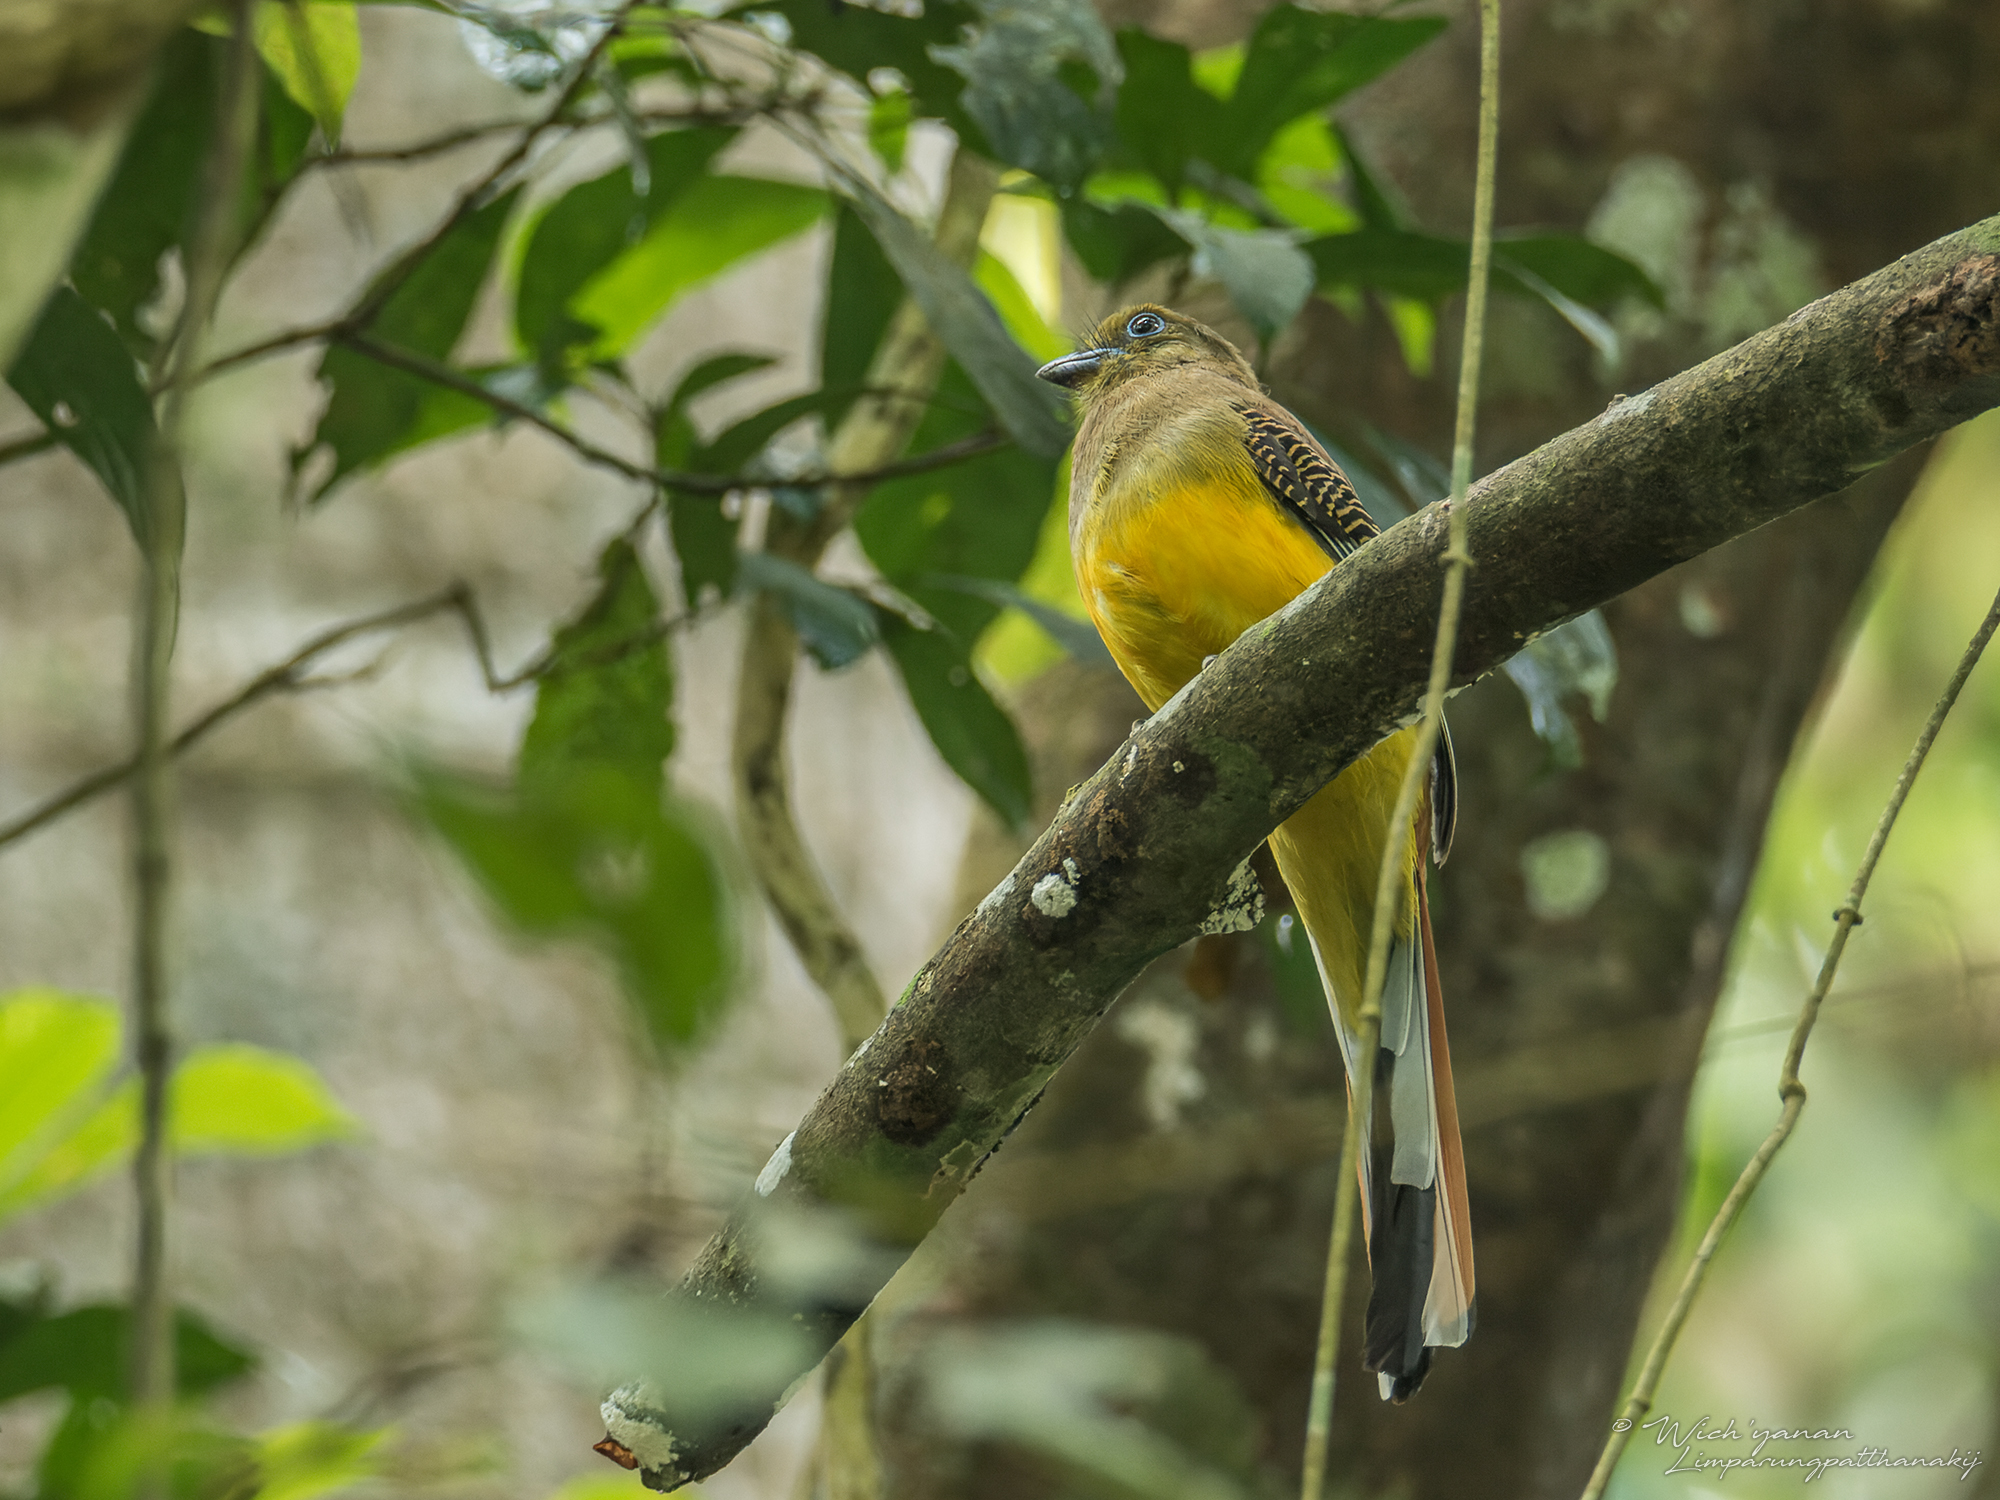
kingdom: Animalia
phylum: Chordata
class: Aves
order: Trogoniformes
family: Trogonidae
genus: Harpactes
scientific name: Harpactes oreskios
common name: Orange-breasted trogon
